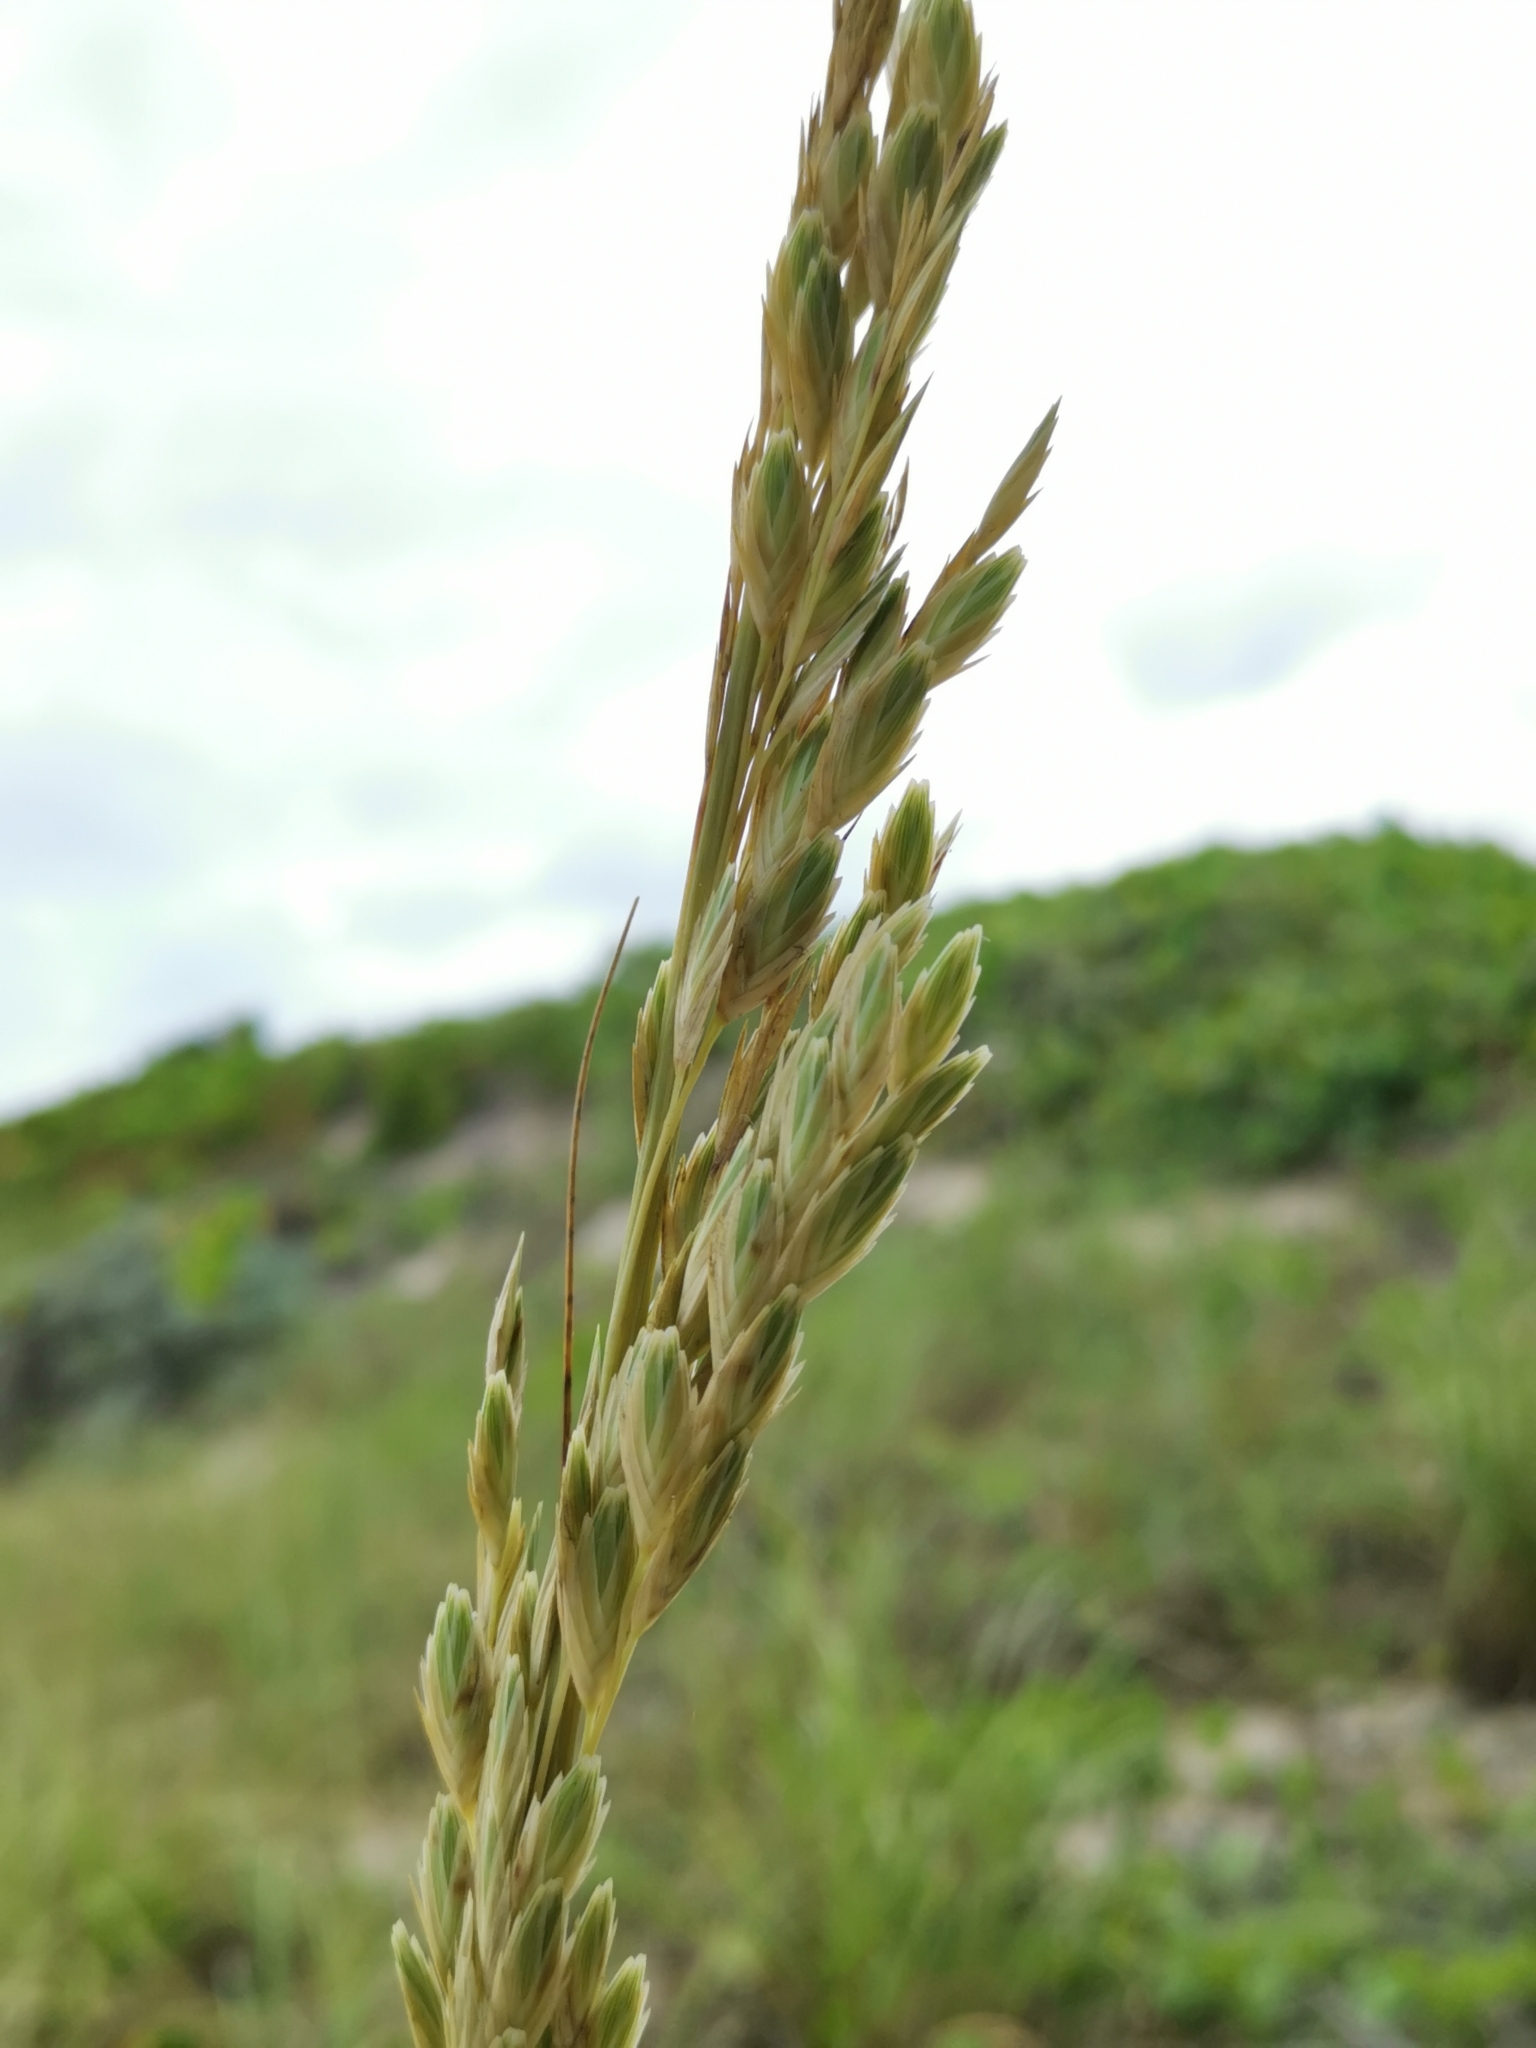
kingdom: Plantae
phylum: Tracheophyta
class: Liliopsida
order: Poales
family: Poaceae
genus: Uniola
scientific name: Uniola paniculata
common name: Seaside-oats
